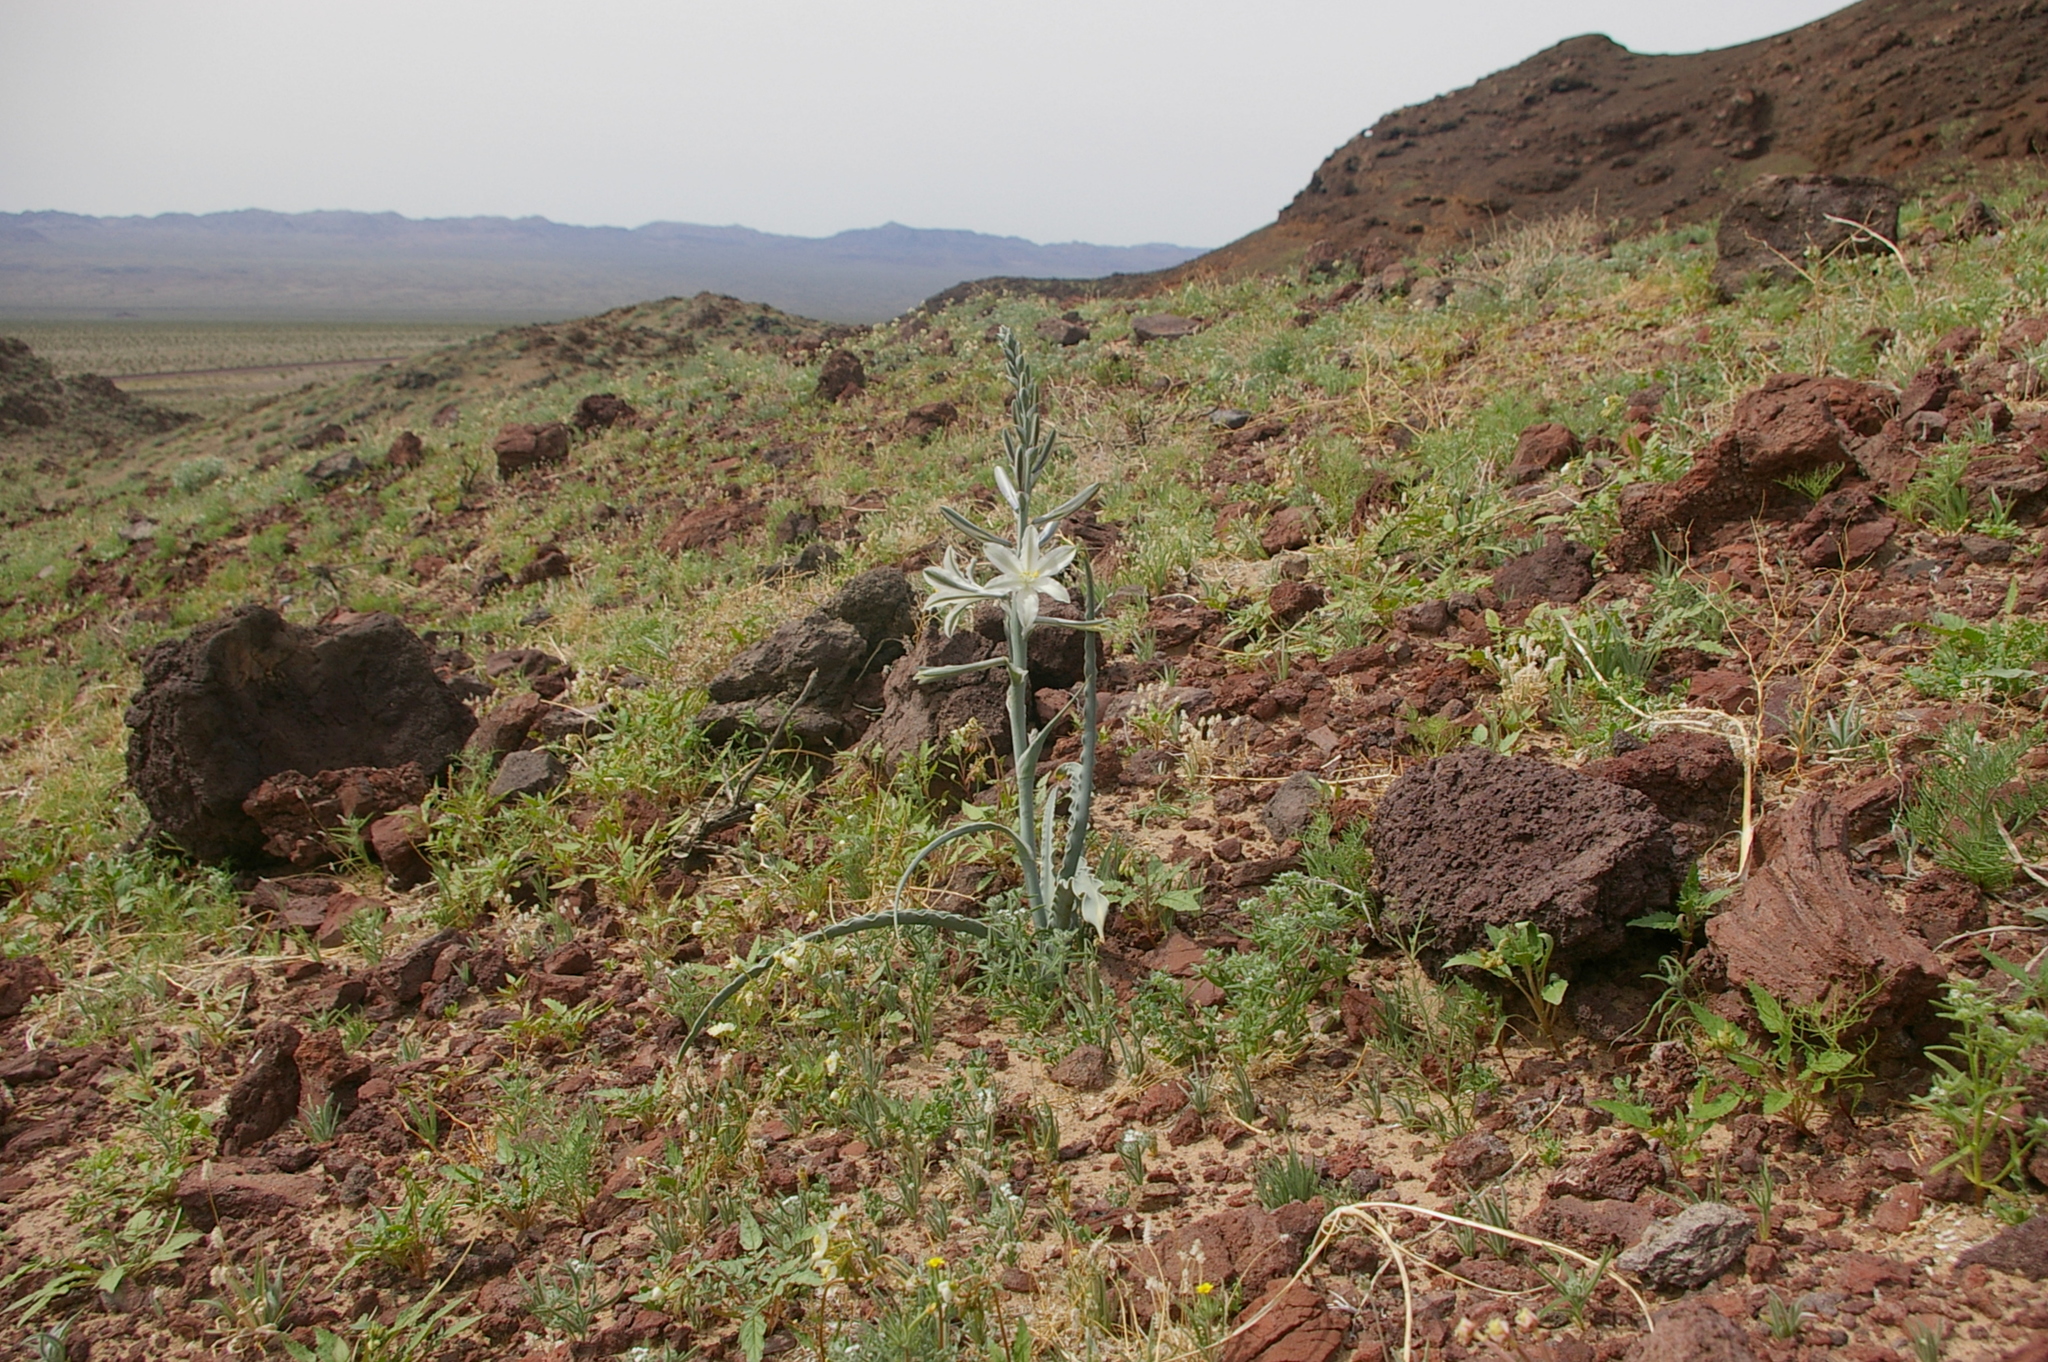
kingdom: Plantae
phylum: Tracheophyta
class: Liliopsida
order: Asparagales
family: Asparagaceae
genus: Hesperocallis
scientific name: Hesperocallis undulata
